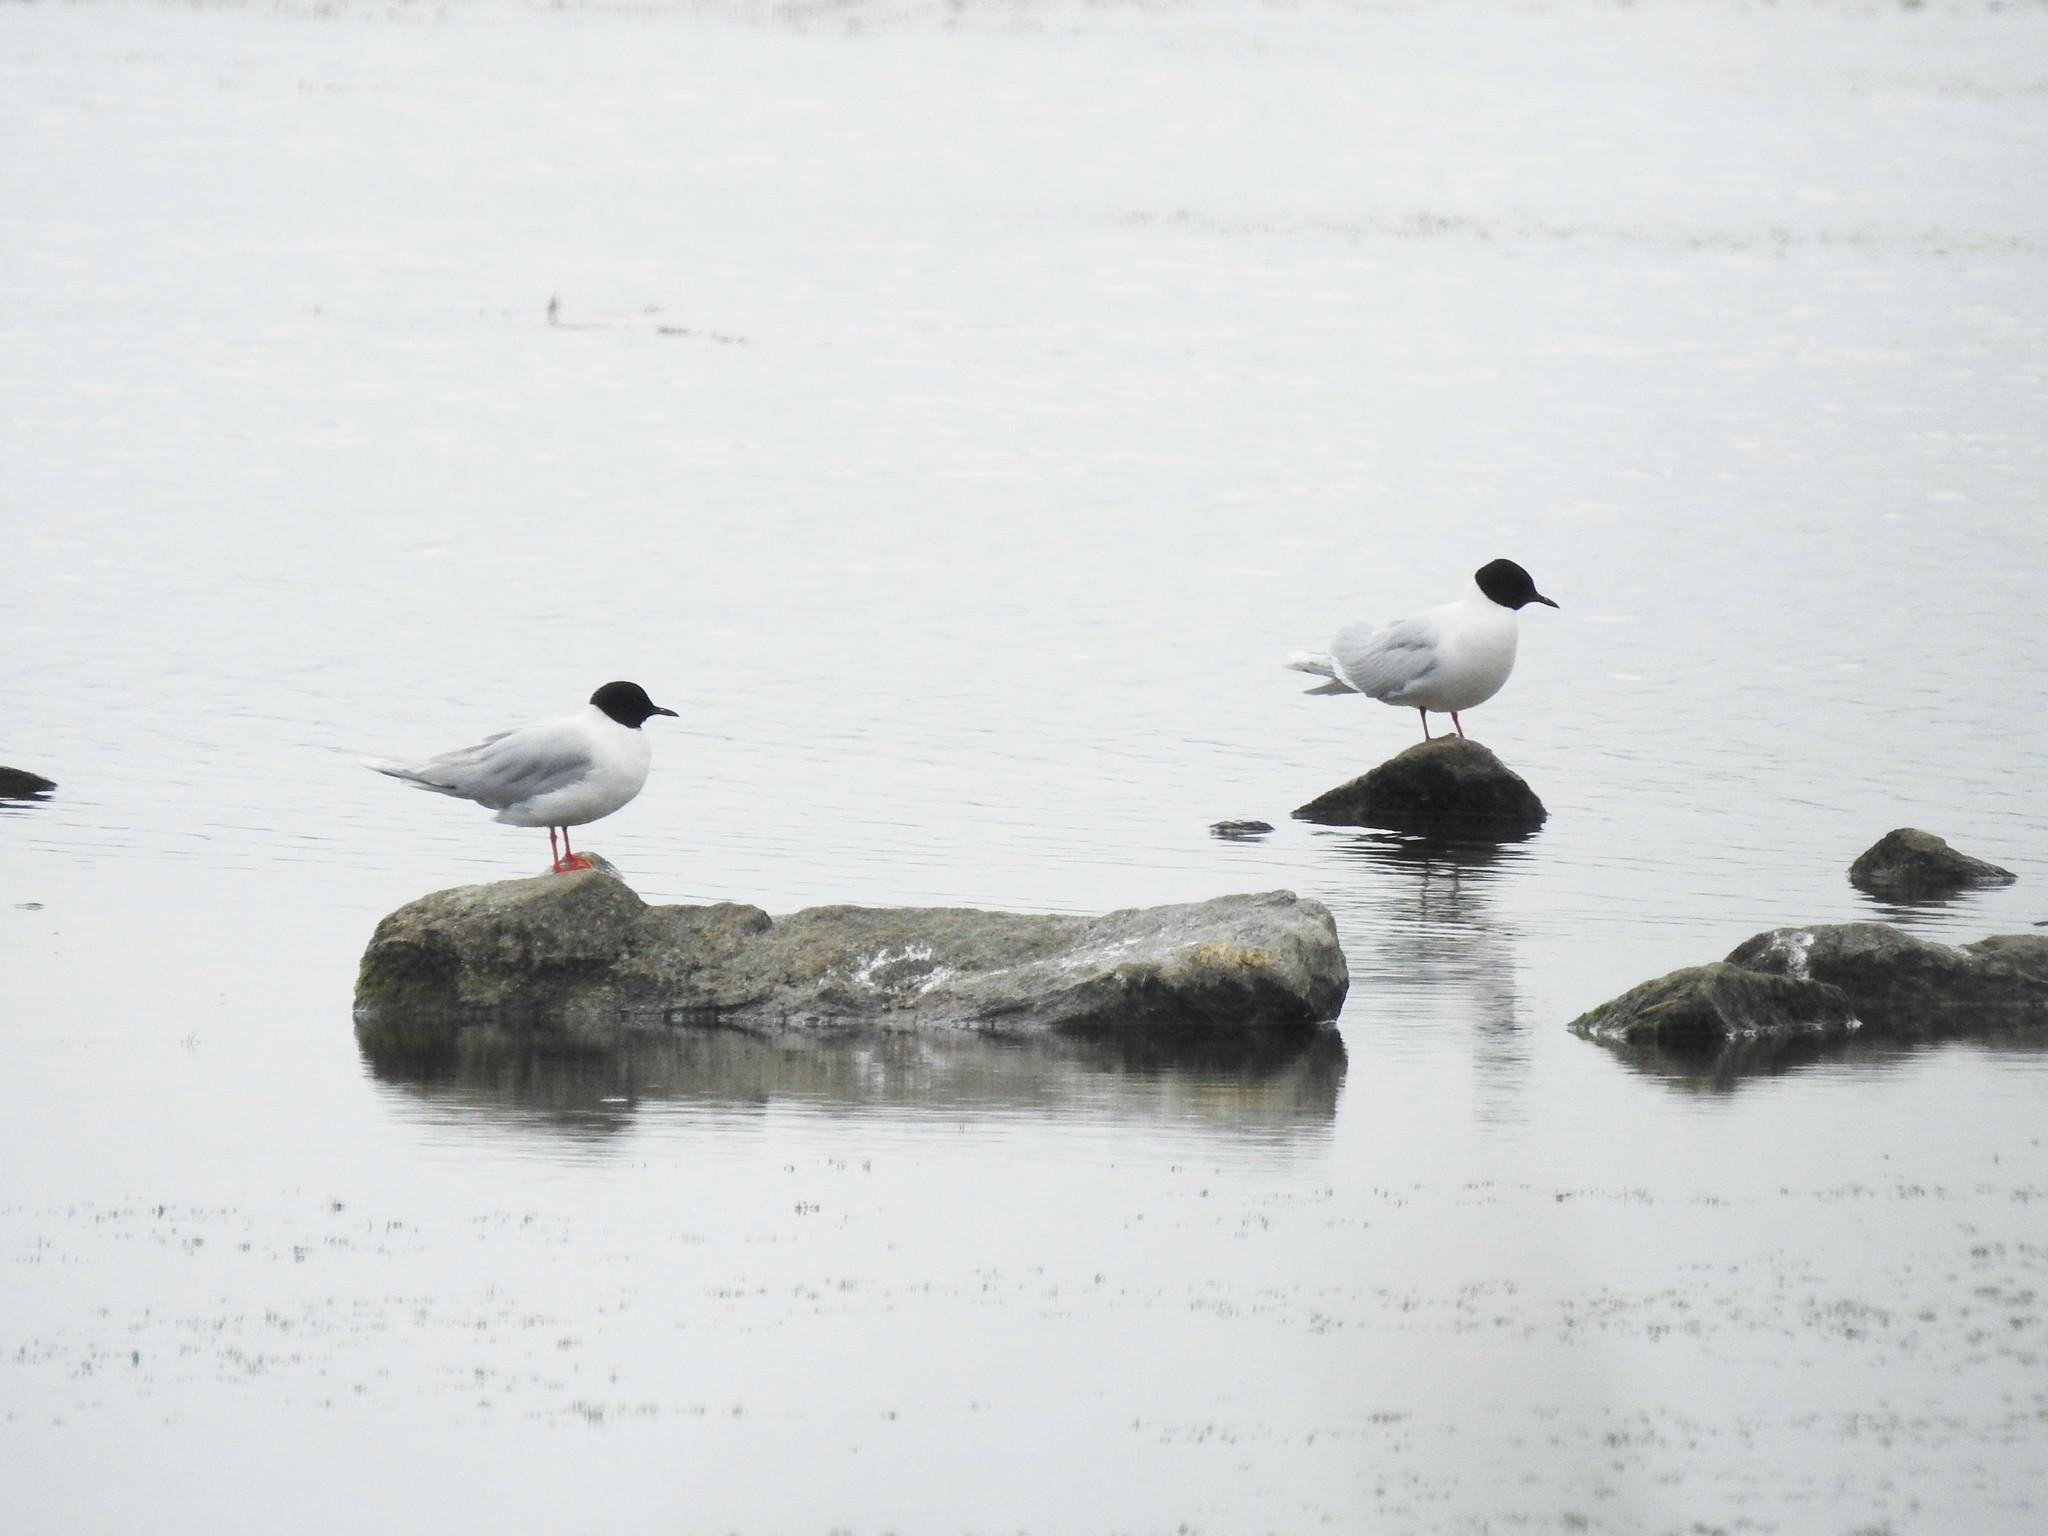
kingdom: Animalia
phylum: Chordata
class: Aves
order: Charadriiformes
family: Laridae
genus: Hydrocoloeus
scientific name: Hydrocoloeus minutus
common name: Little gull
